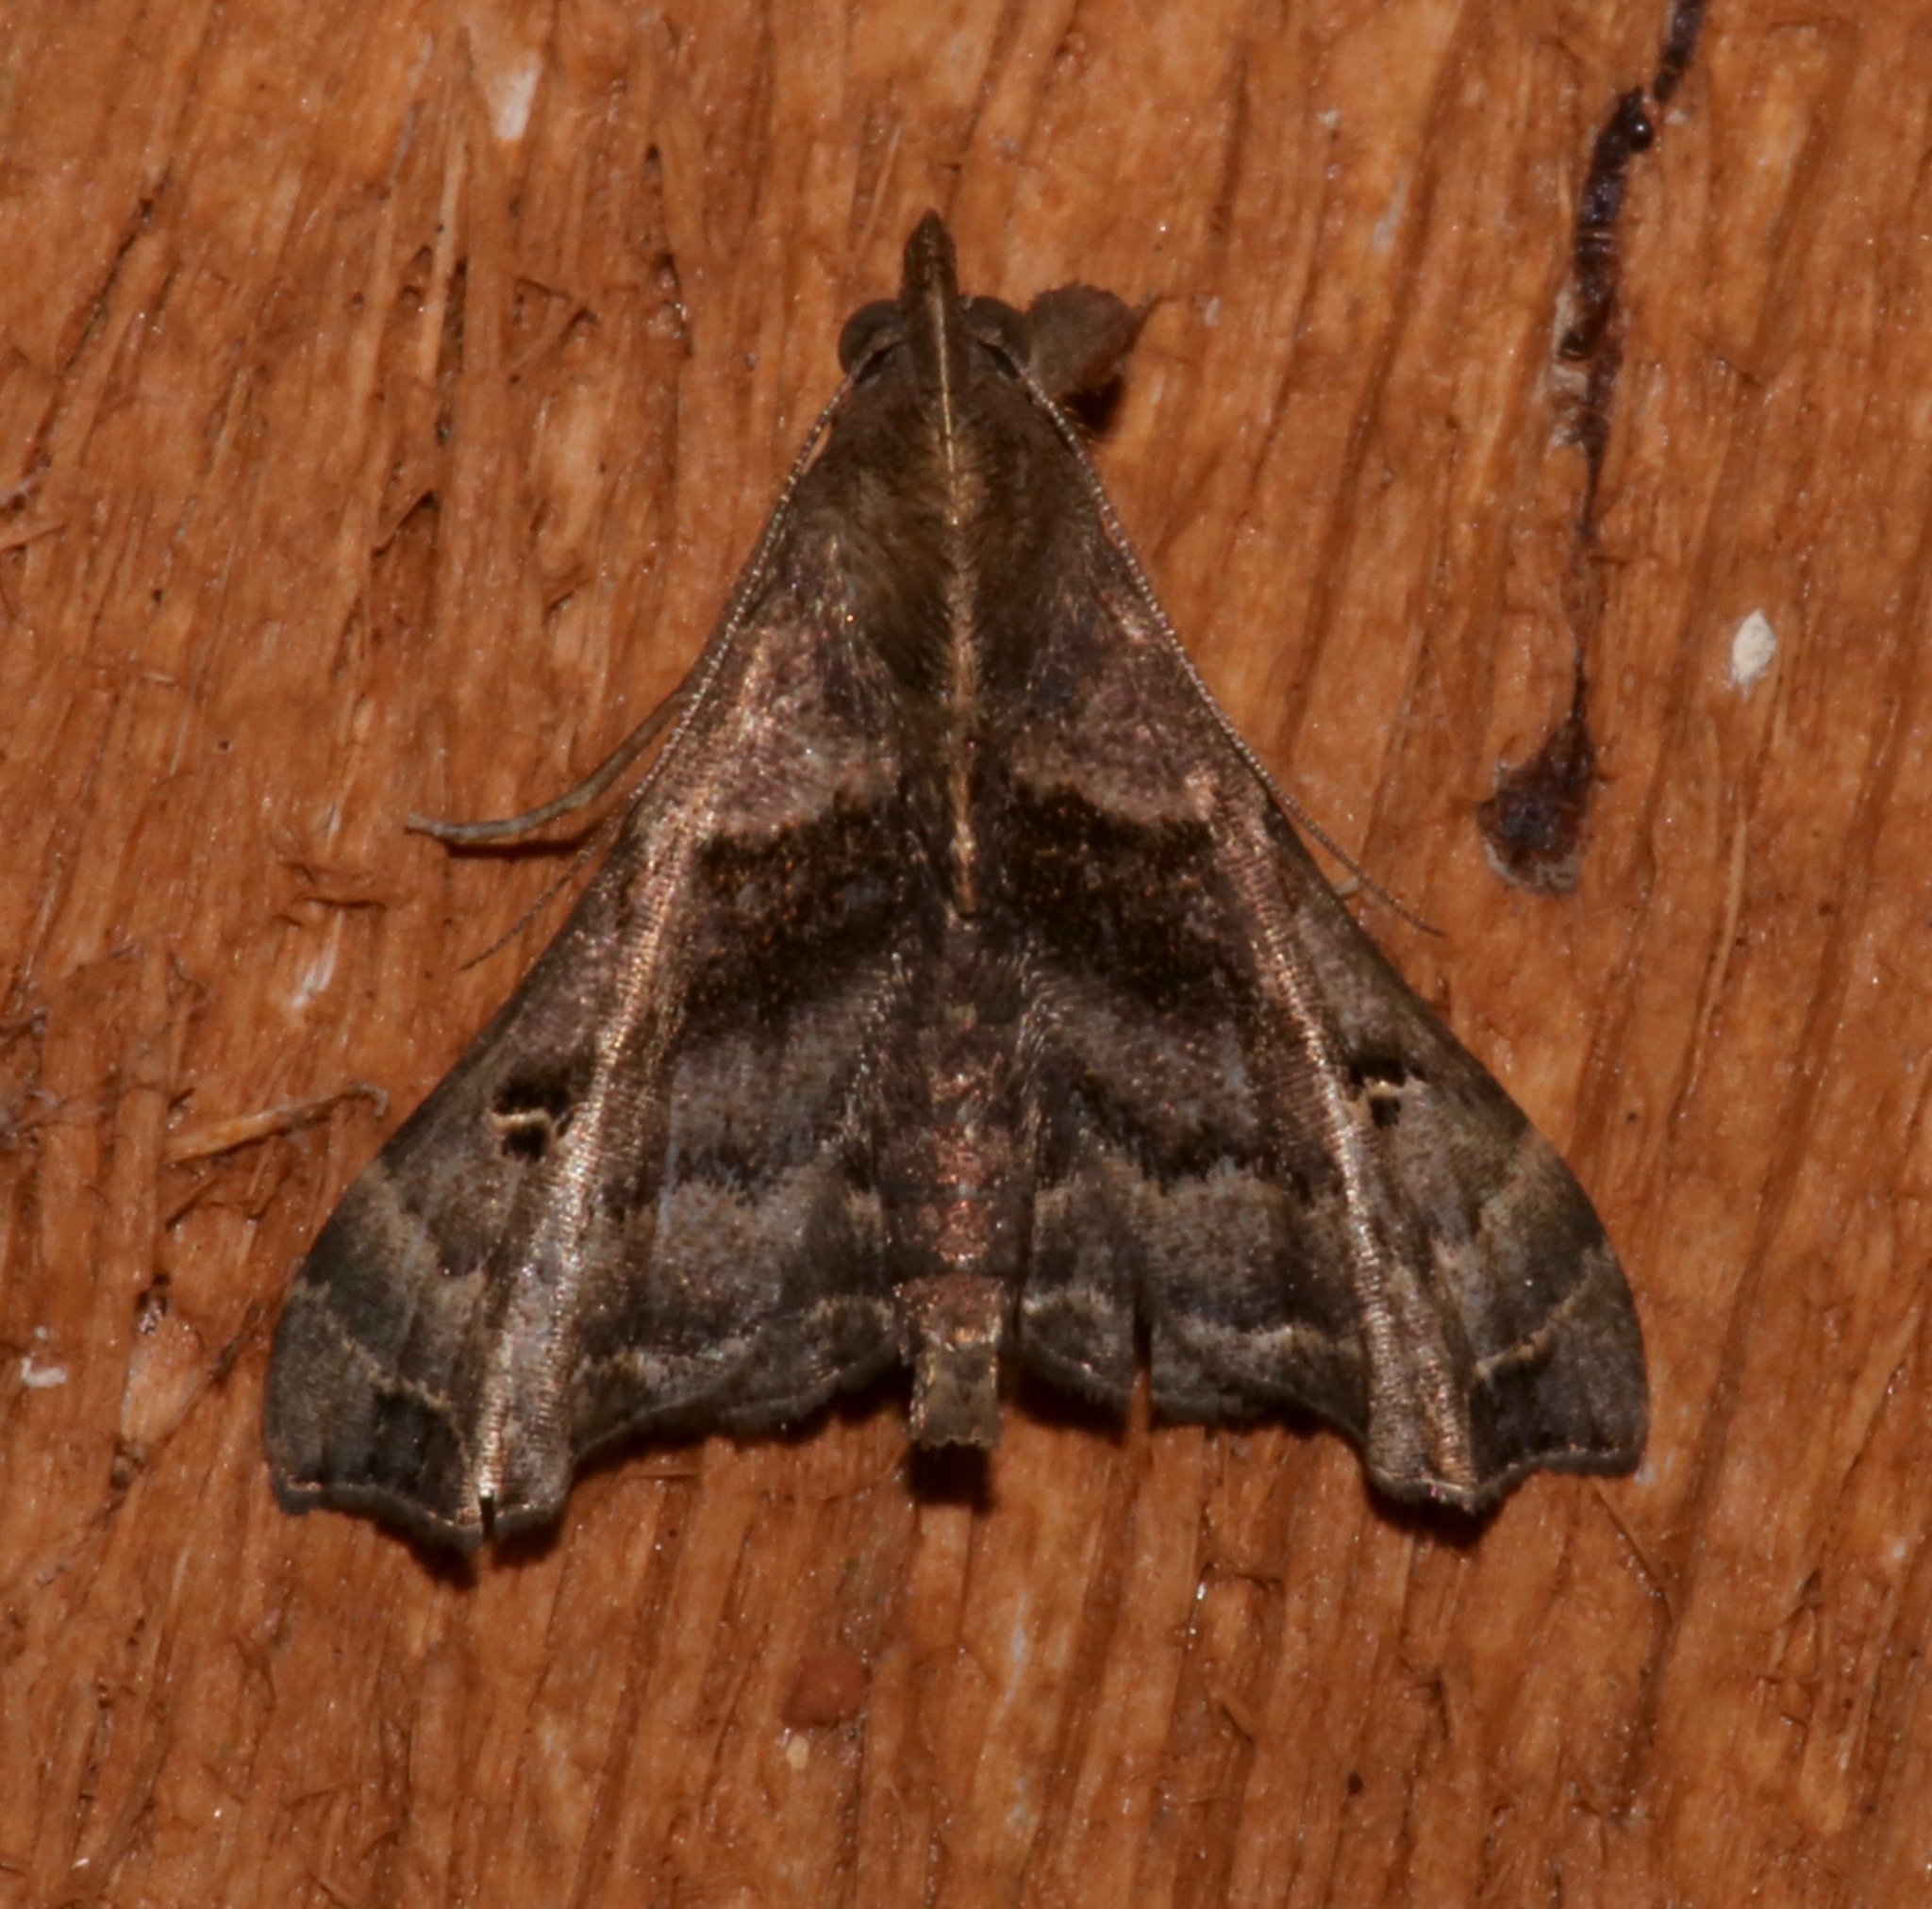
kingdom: Animalia
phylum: Arthropoda
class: Insecta
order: Lepidoptera
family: Erebidae
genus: Palthis
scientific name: Palthis asopialis
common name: Faint-spotted palthis moth
